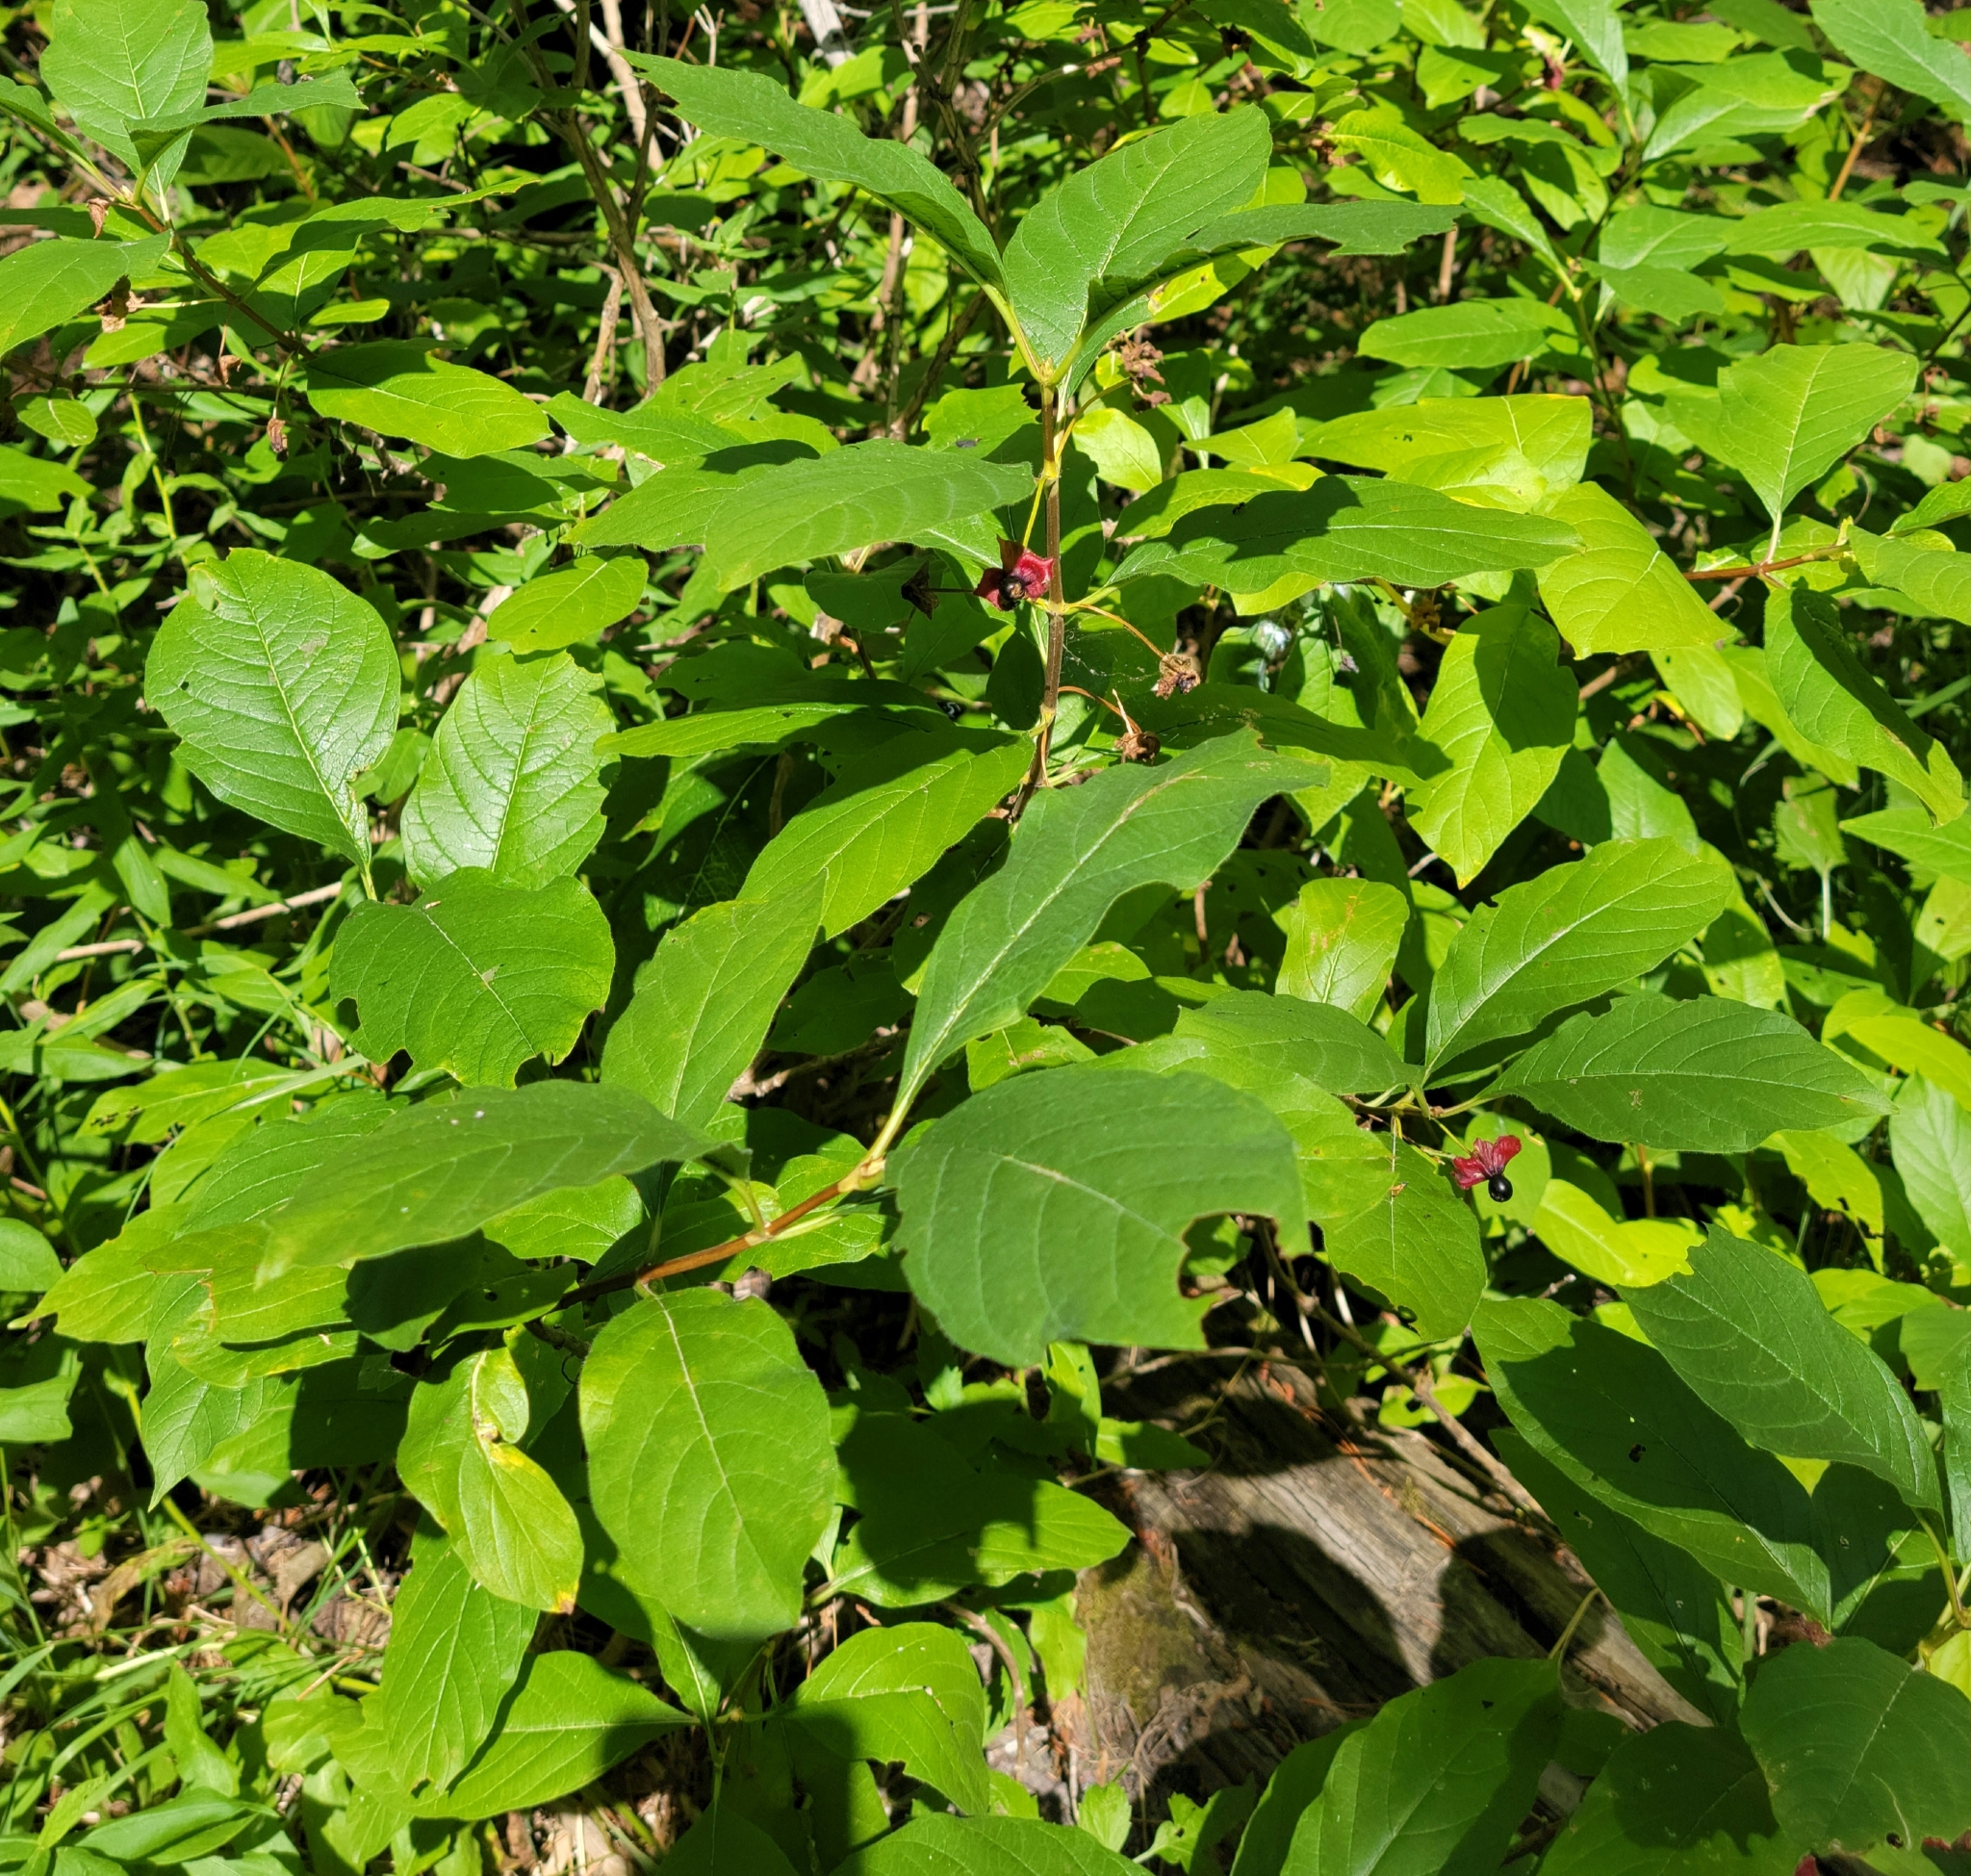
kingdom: Plantae
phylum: Tracheophyta
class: Magnoliopsida
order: Dipsacales
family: Caprifoliaceae
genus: Lonicera
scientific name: Lonicera involucrata
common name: Californian honeysuckle
